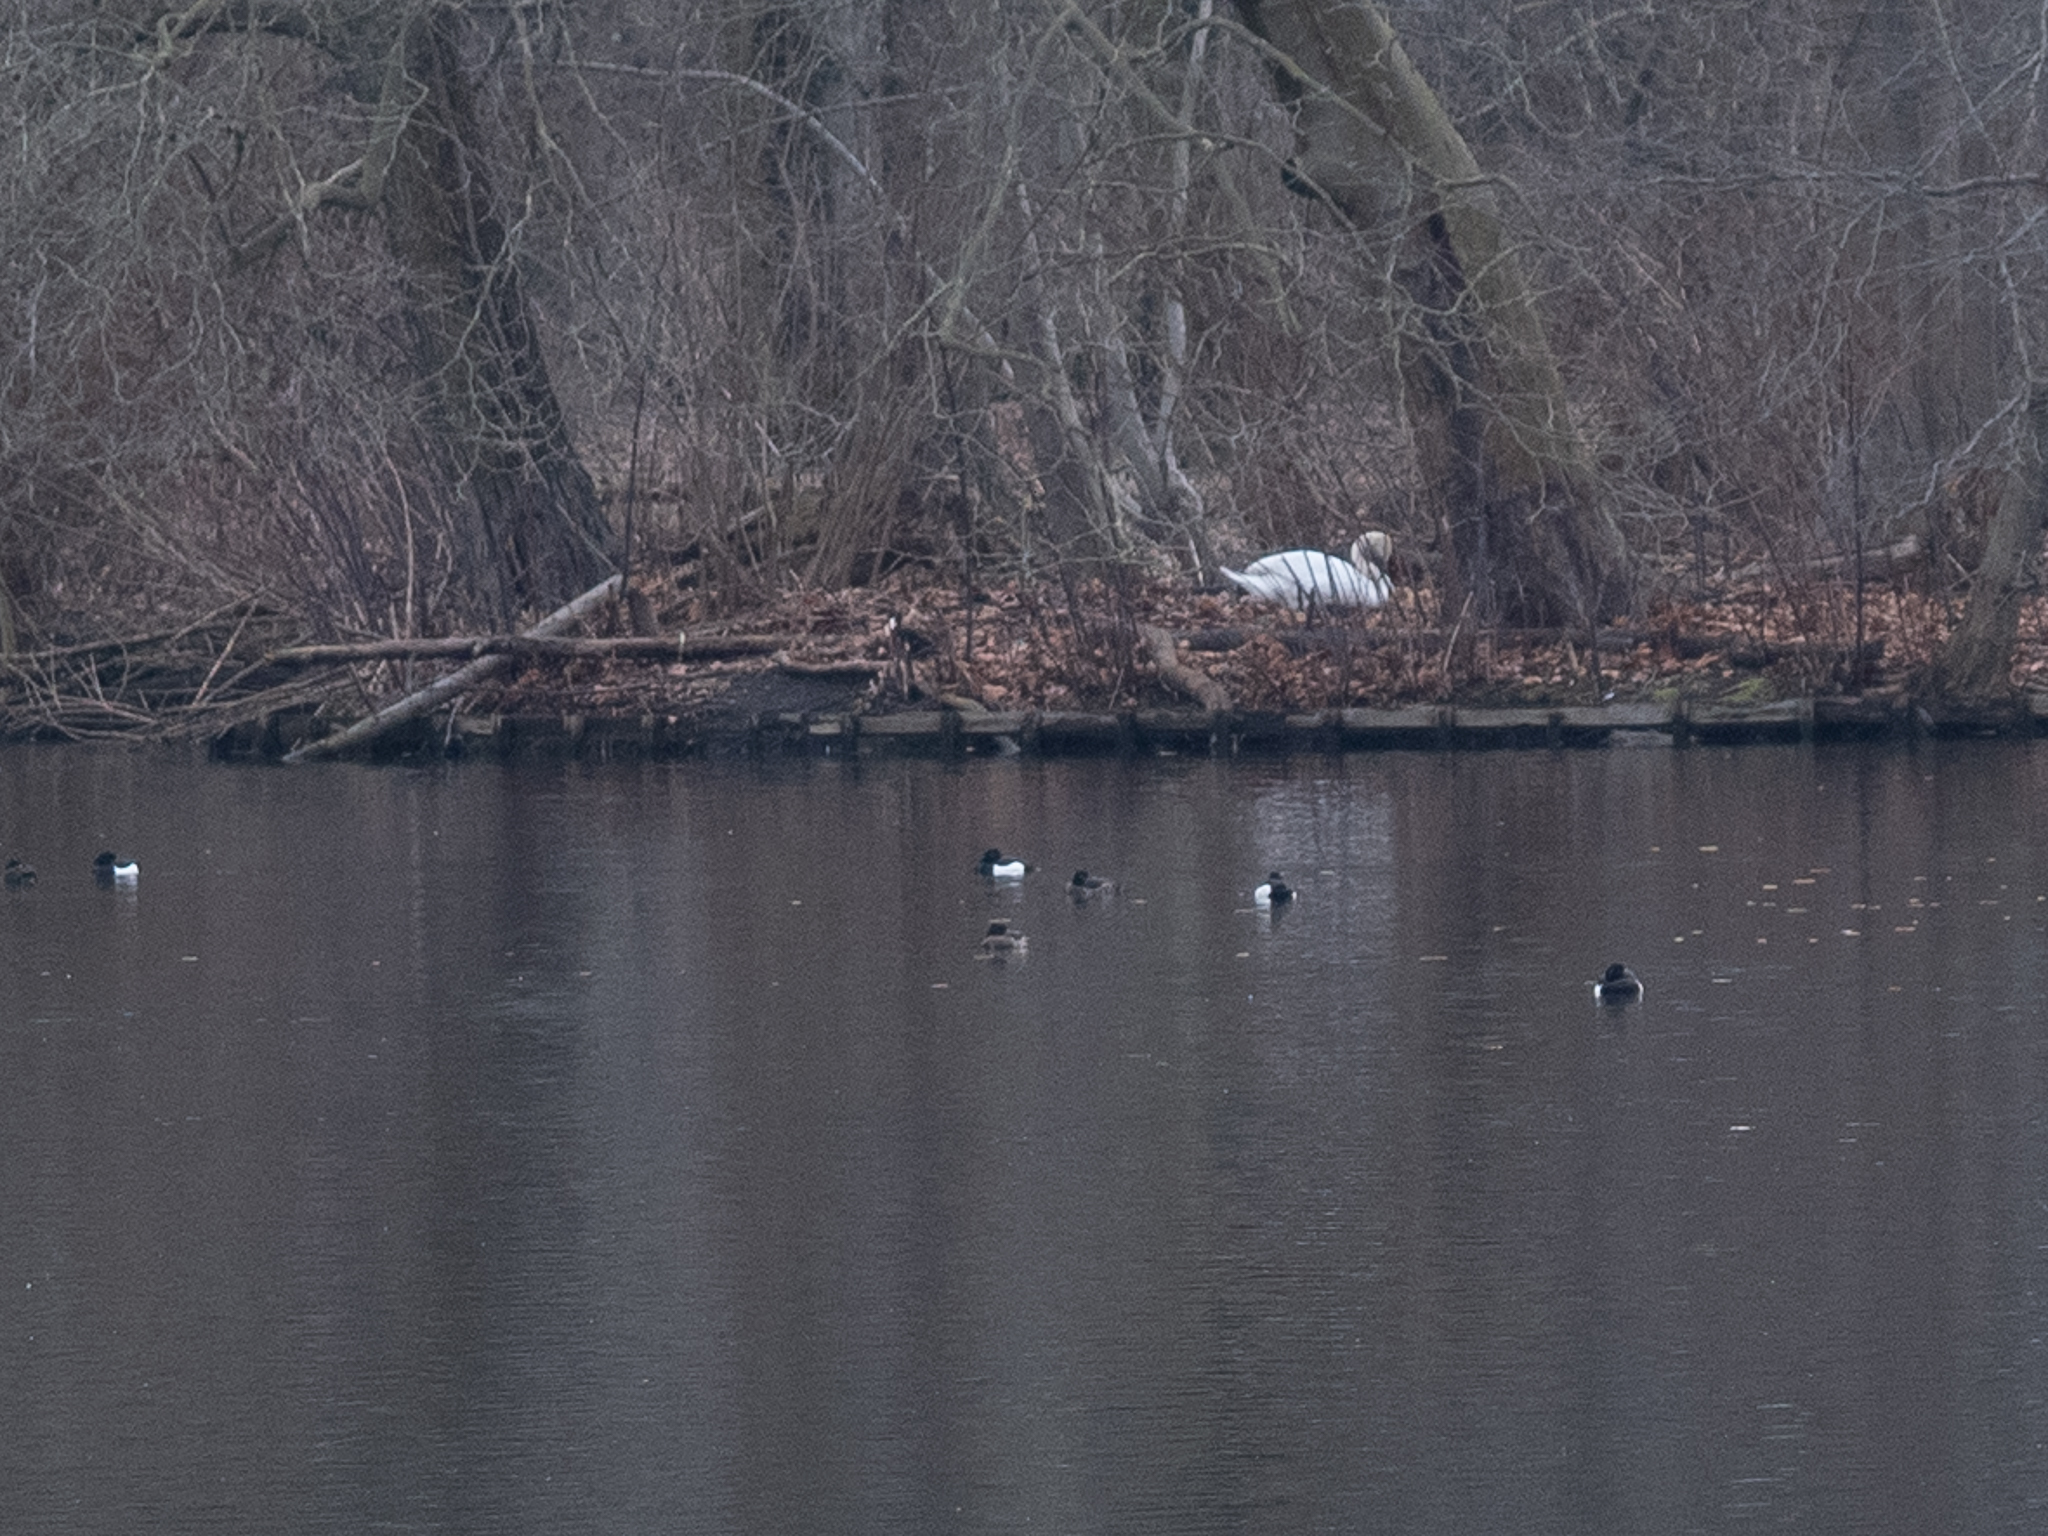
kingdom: Animalia
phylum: Chordata
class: Aves
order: Anseriformes
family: Anatidae
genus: Aythya
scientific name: Aythya fuligula
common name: Tufted duck
